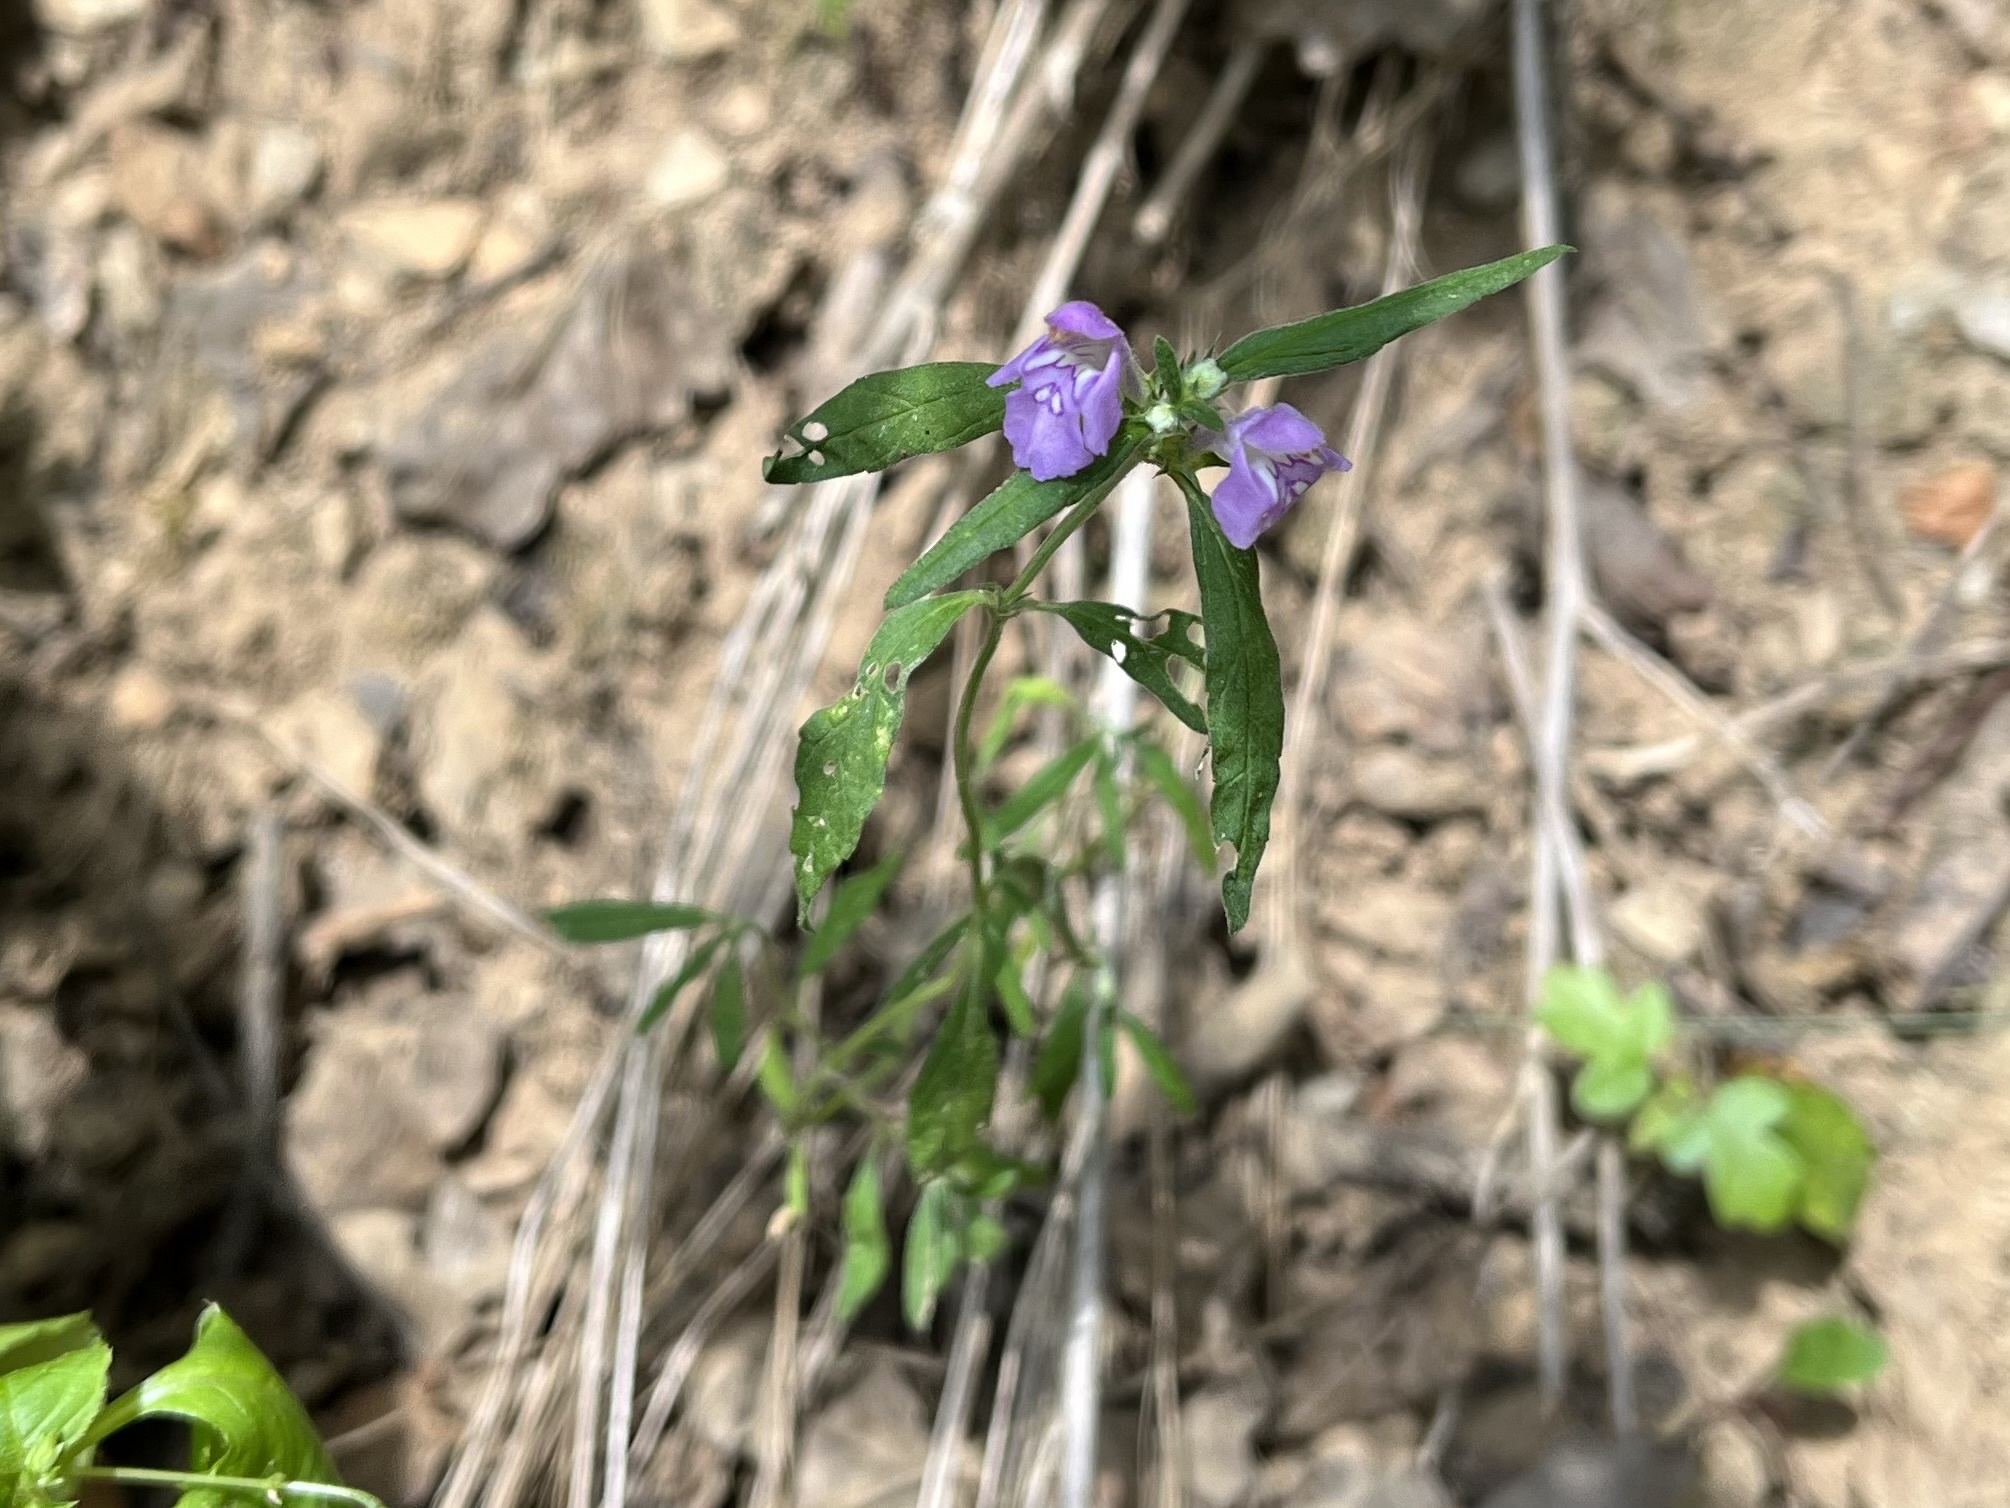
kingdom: Plantae
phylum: Tracheophyta
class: Magnoliopsida
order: Lamiales
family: Lamiaceae
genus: Galeopsis
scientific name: Galeopsis angustifolia
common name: Red hemp-nettle
